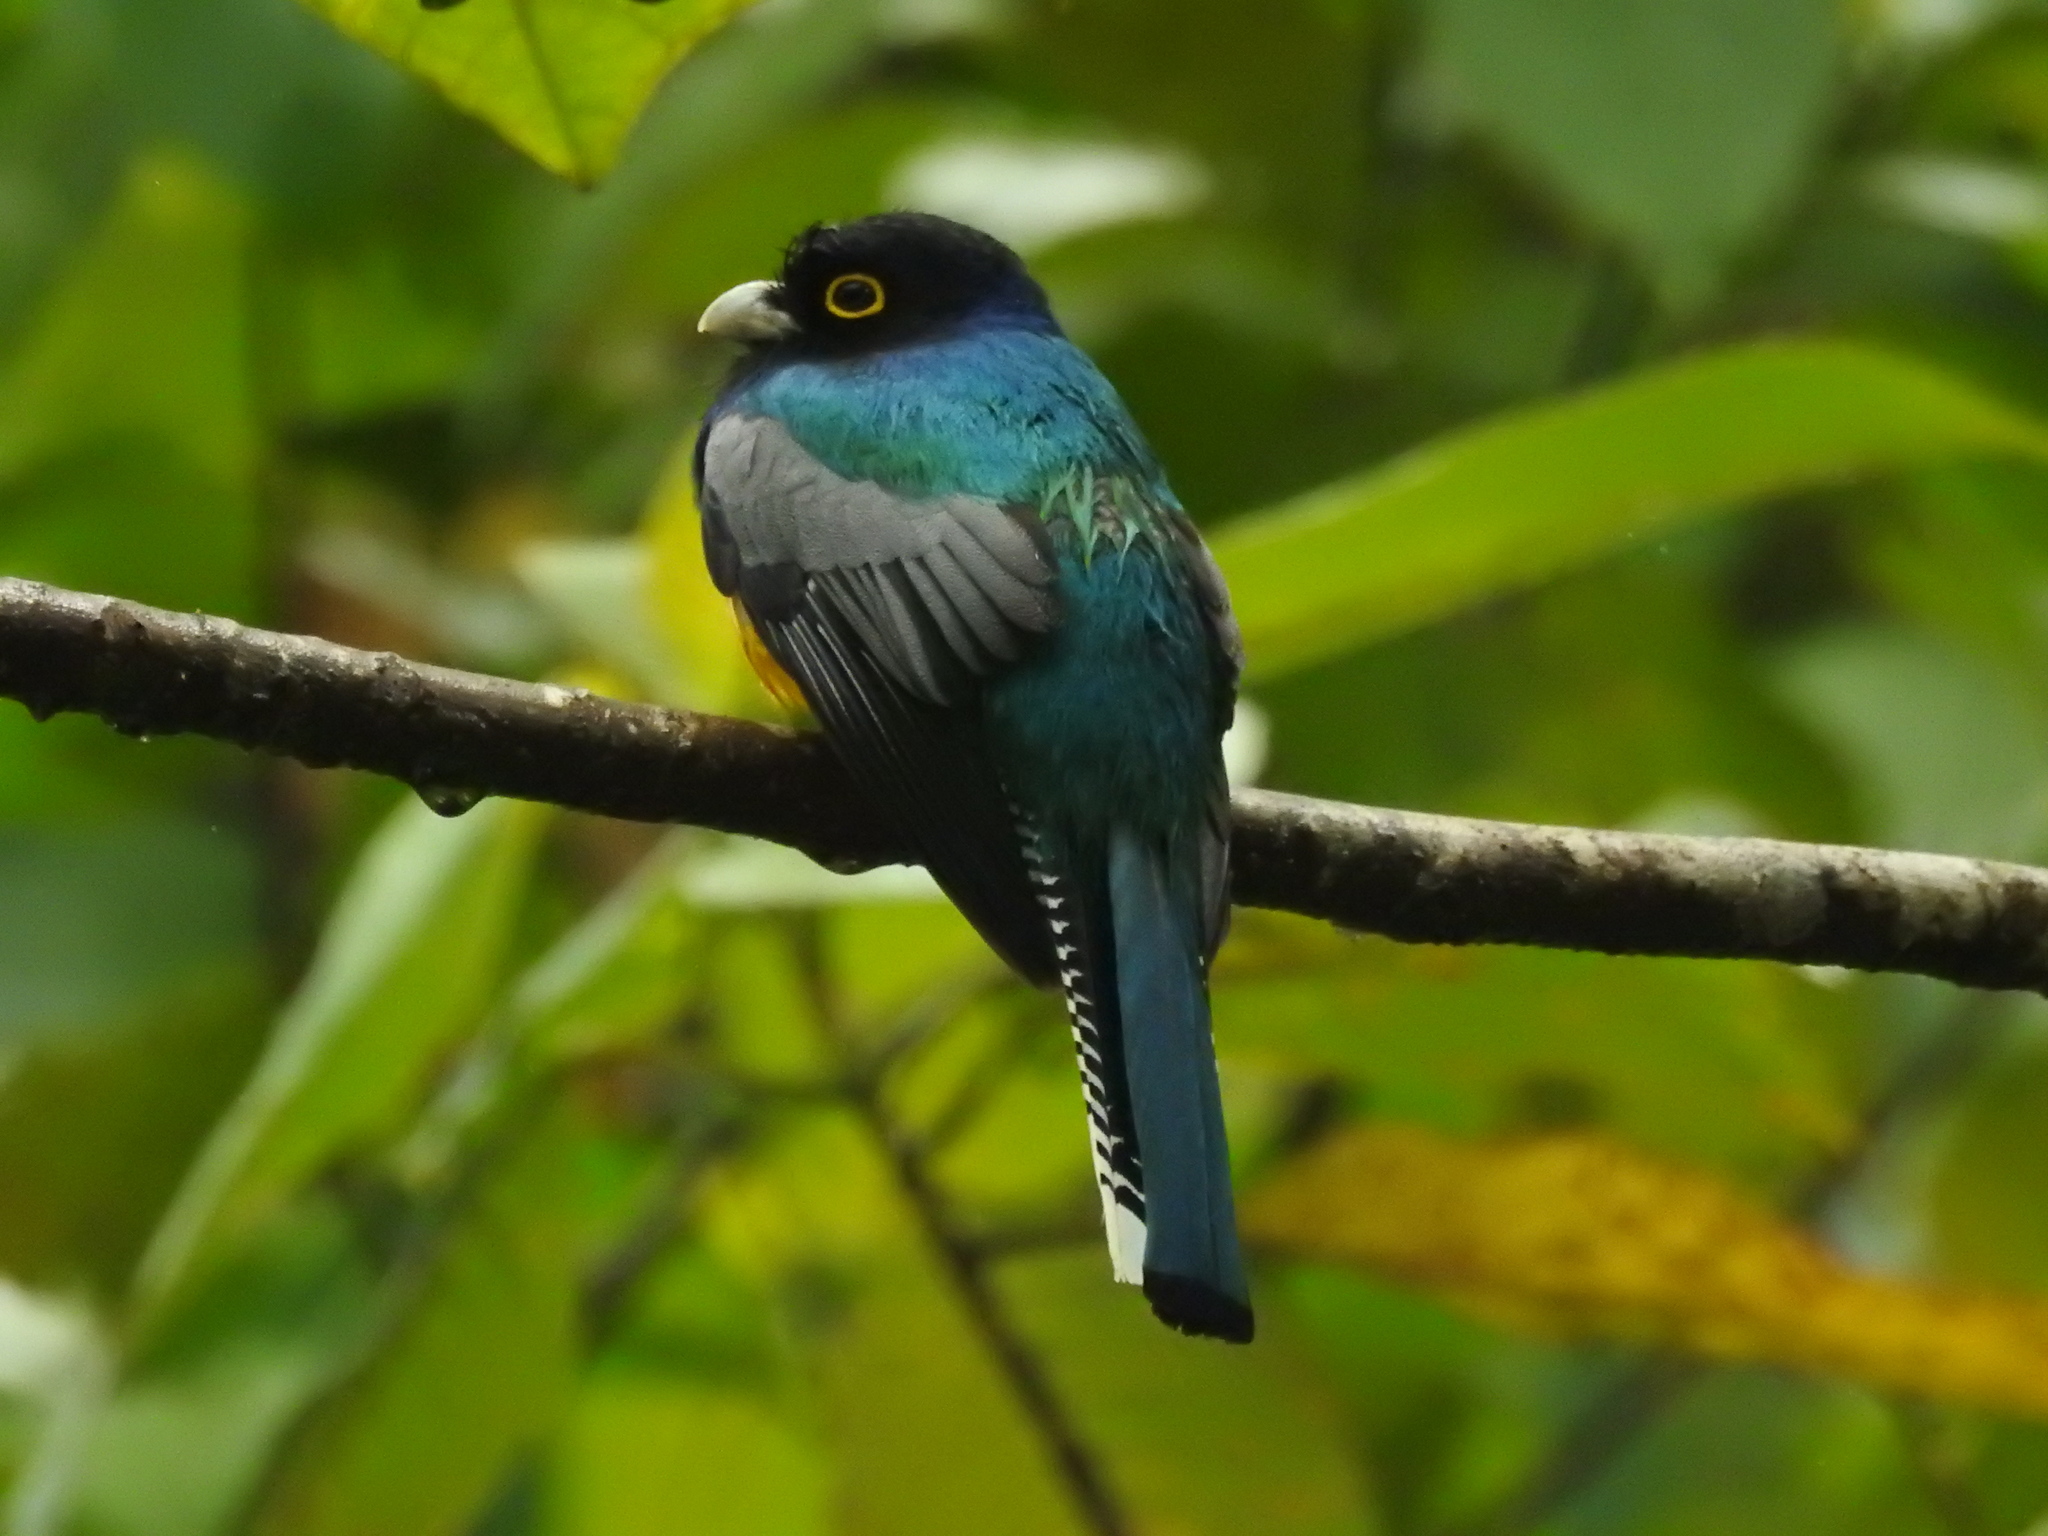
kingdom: Animalia
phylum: Chordata
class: Aves
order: Trogoniformes
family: Trogonidae
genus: Trogon
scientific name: Trogon caligatus
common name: Gartered trogon
